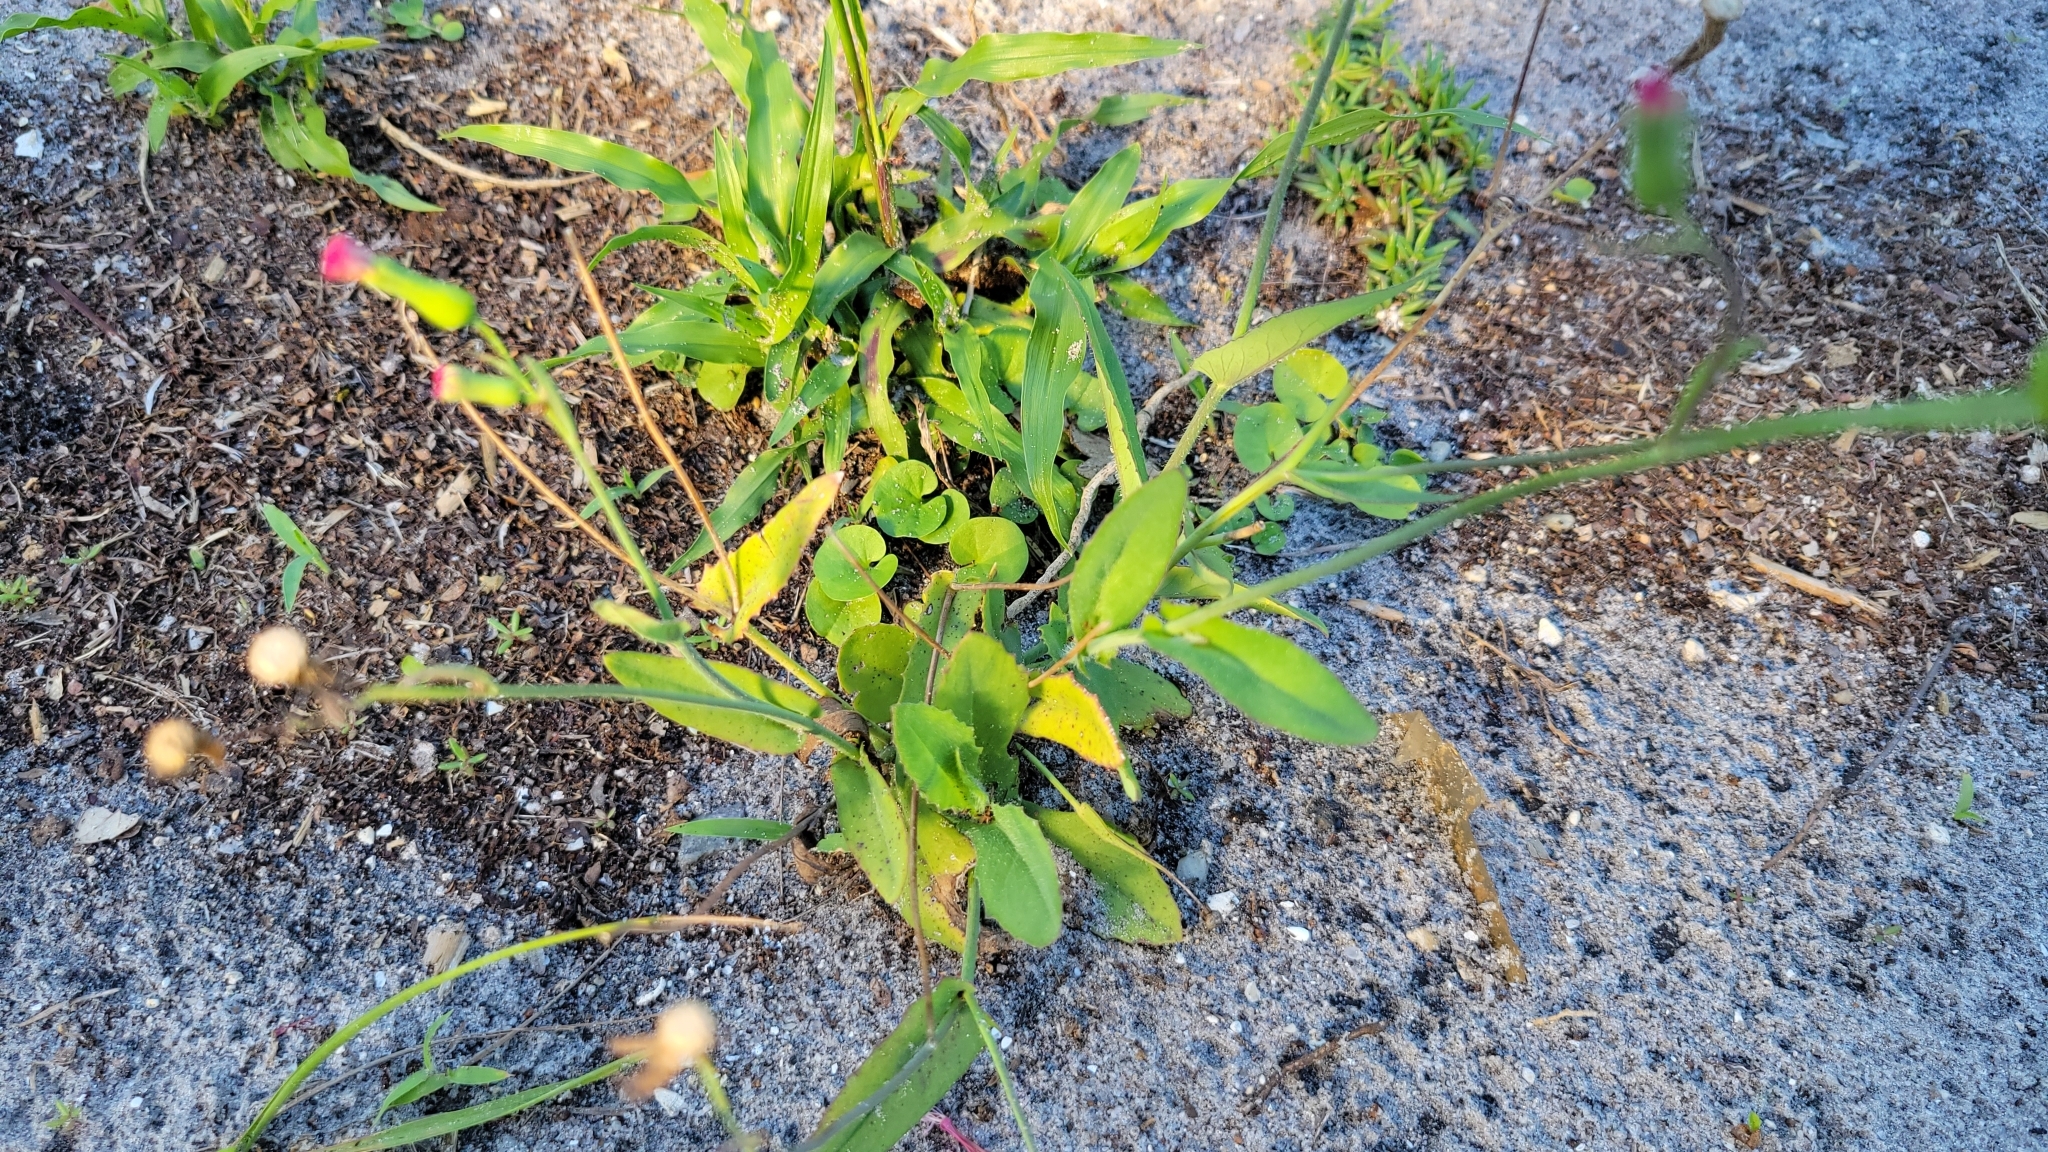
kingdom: Plantae
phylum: Tracheophyta
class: Magnoliopsida
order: Asterales
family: Asteraceae
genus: Emilia
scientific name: Emilia fosbergii
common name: Florida tasselflower
